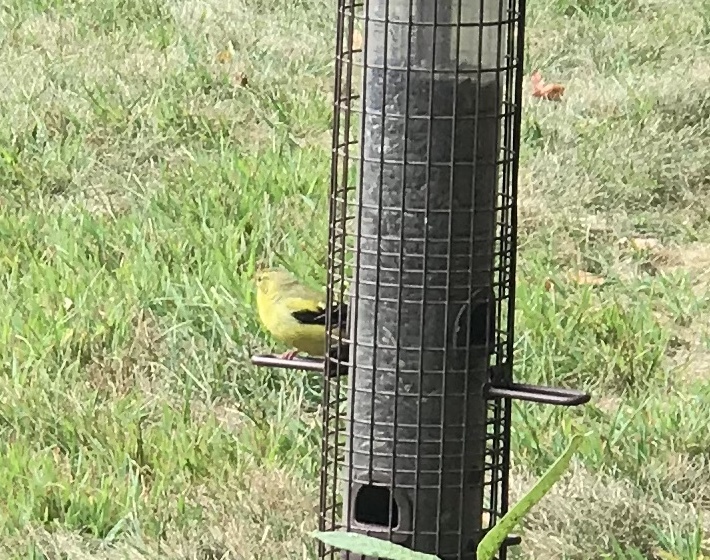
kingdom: Animalia
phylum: Chordata
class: Aves
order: Passeriformes
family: Fringillidae
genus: Spinus
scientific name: Spinus tristis
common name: American goldfinch
